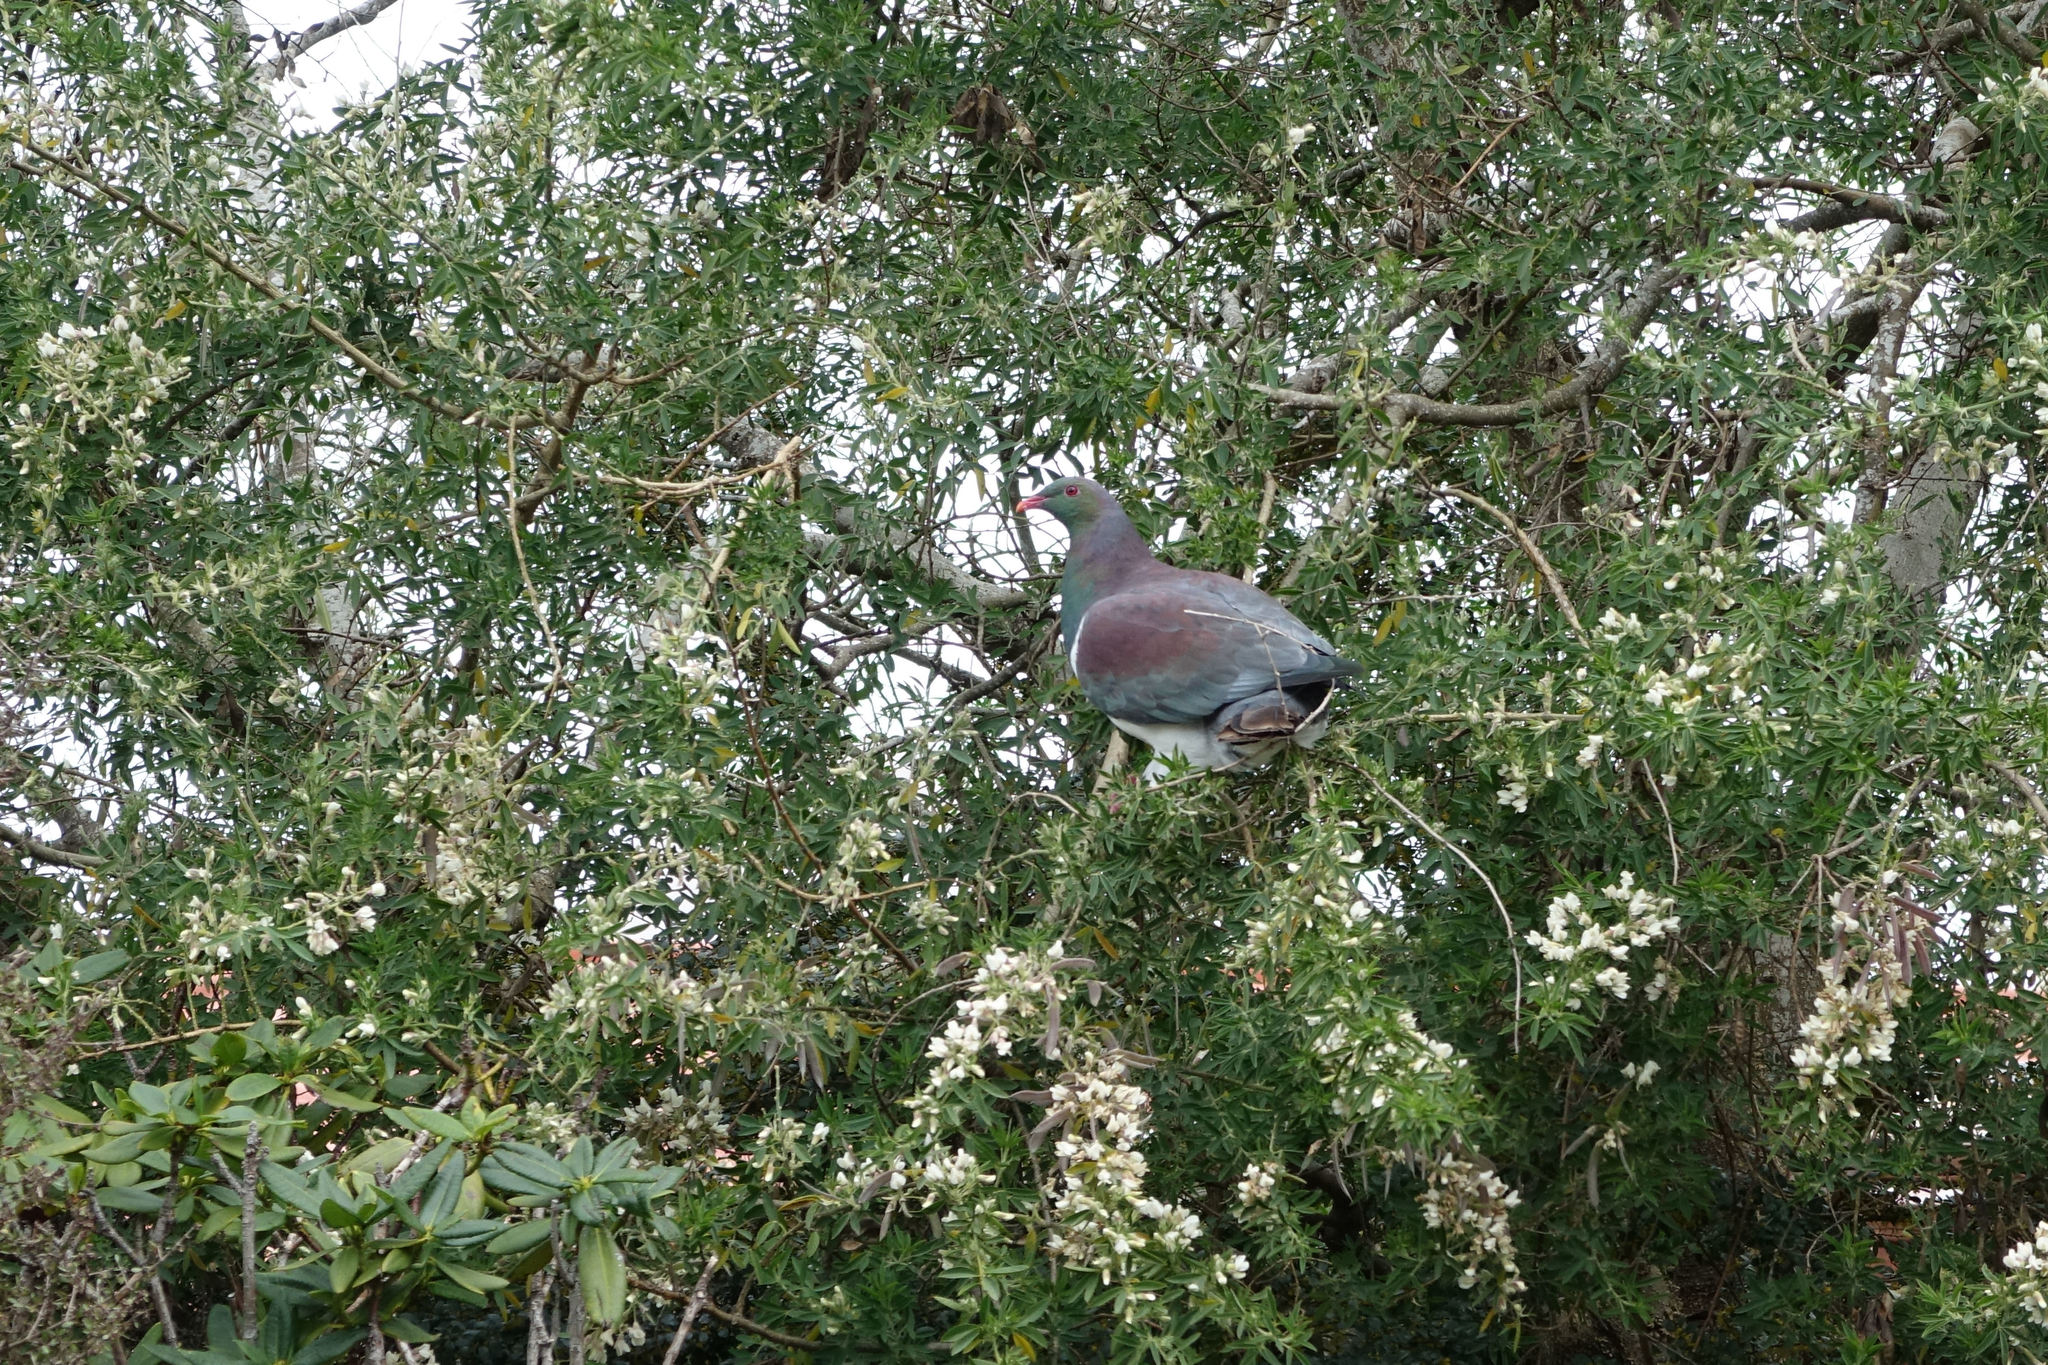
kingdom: Animalia
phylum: Chordata
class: Aves
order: Columbiformes
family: Columbidae
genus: Hemiphaga
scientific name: Hemiphaga novaeseelandiae
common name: New zealand pigeon
